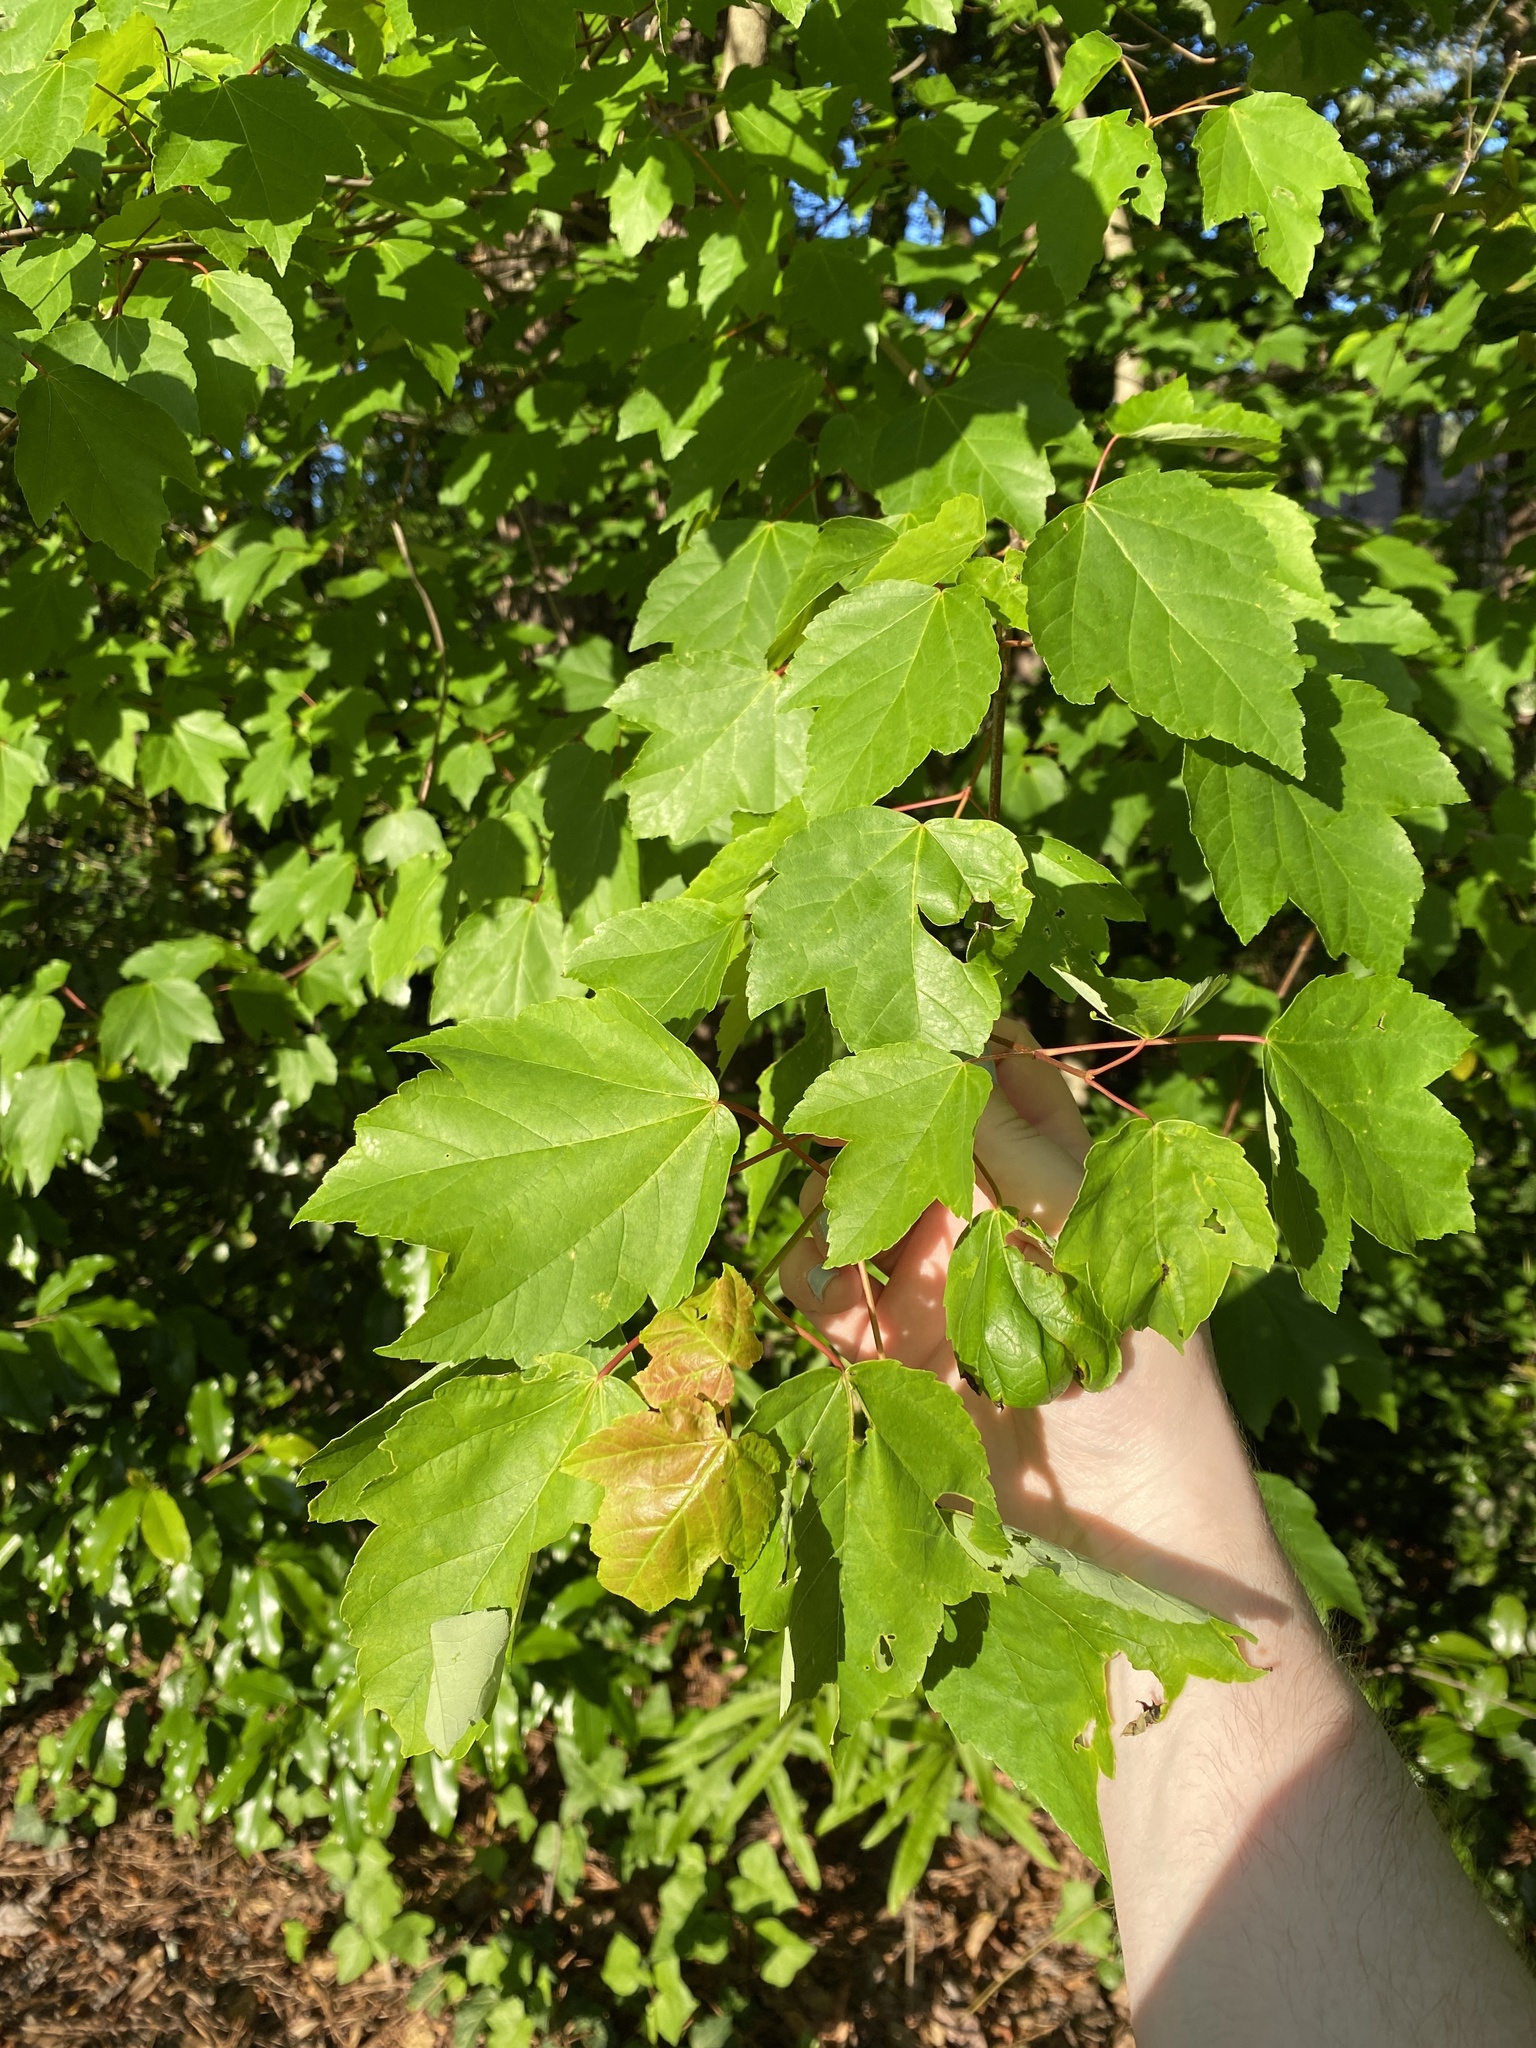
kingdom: Plantae
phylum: Tracheophyta
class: Magnoliopsida
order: Sapindales
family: Sapindaceae
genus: Acer
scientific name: Acer rubrum
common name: Red maple
